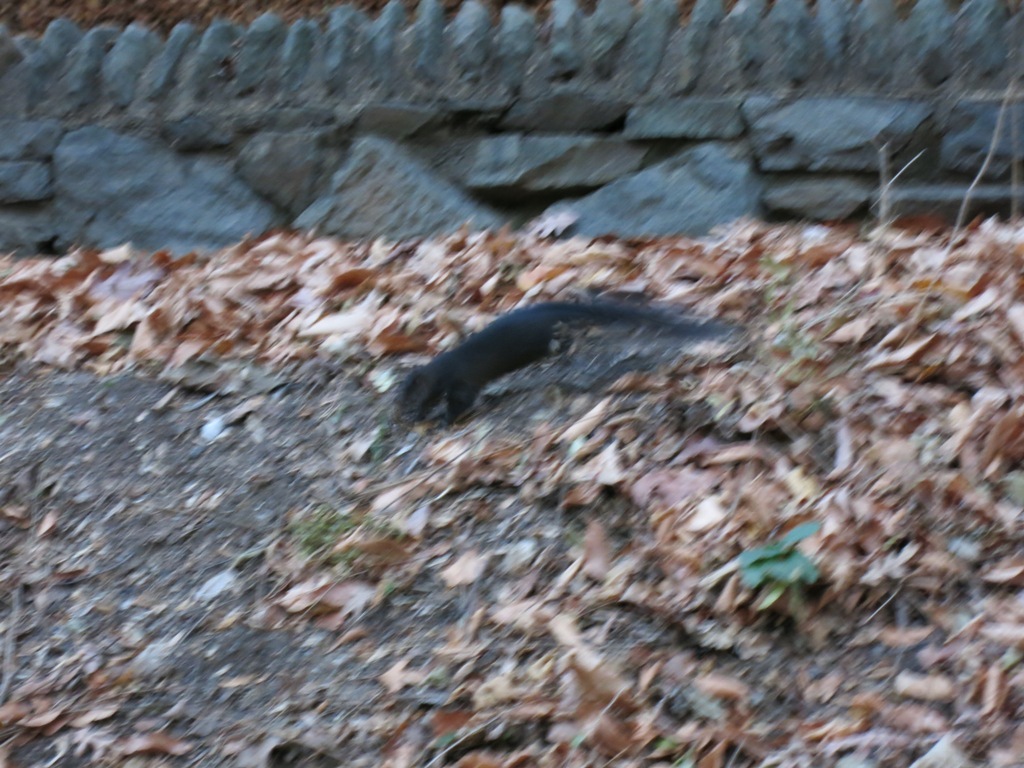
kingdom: Animalia
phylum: Chordata
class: Mammalia
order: Rodentia
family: Sciuridae
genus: Sciurus
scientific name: Sciurus carolinensis
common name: Eastern gray squirrel
